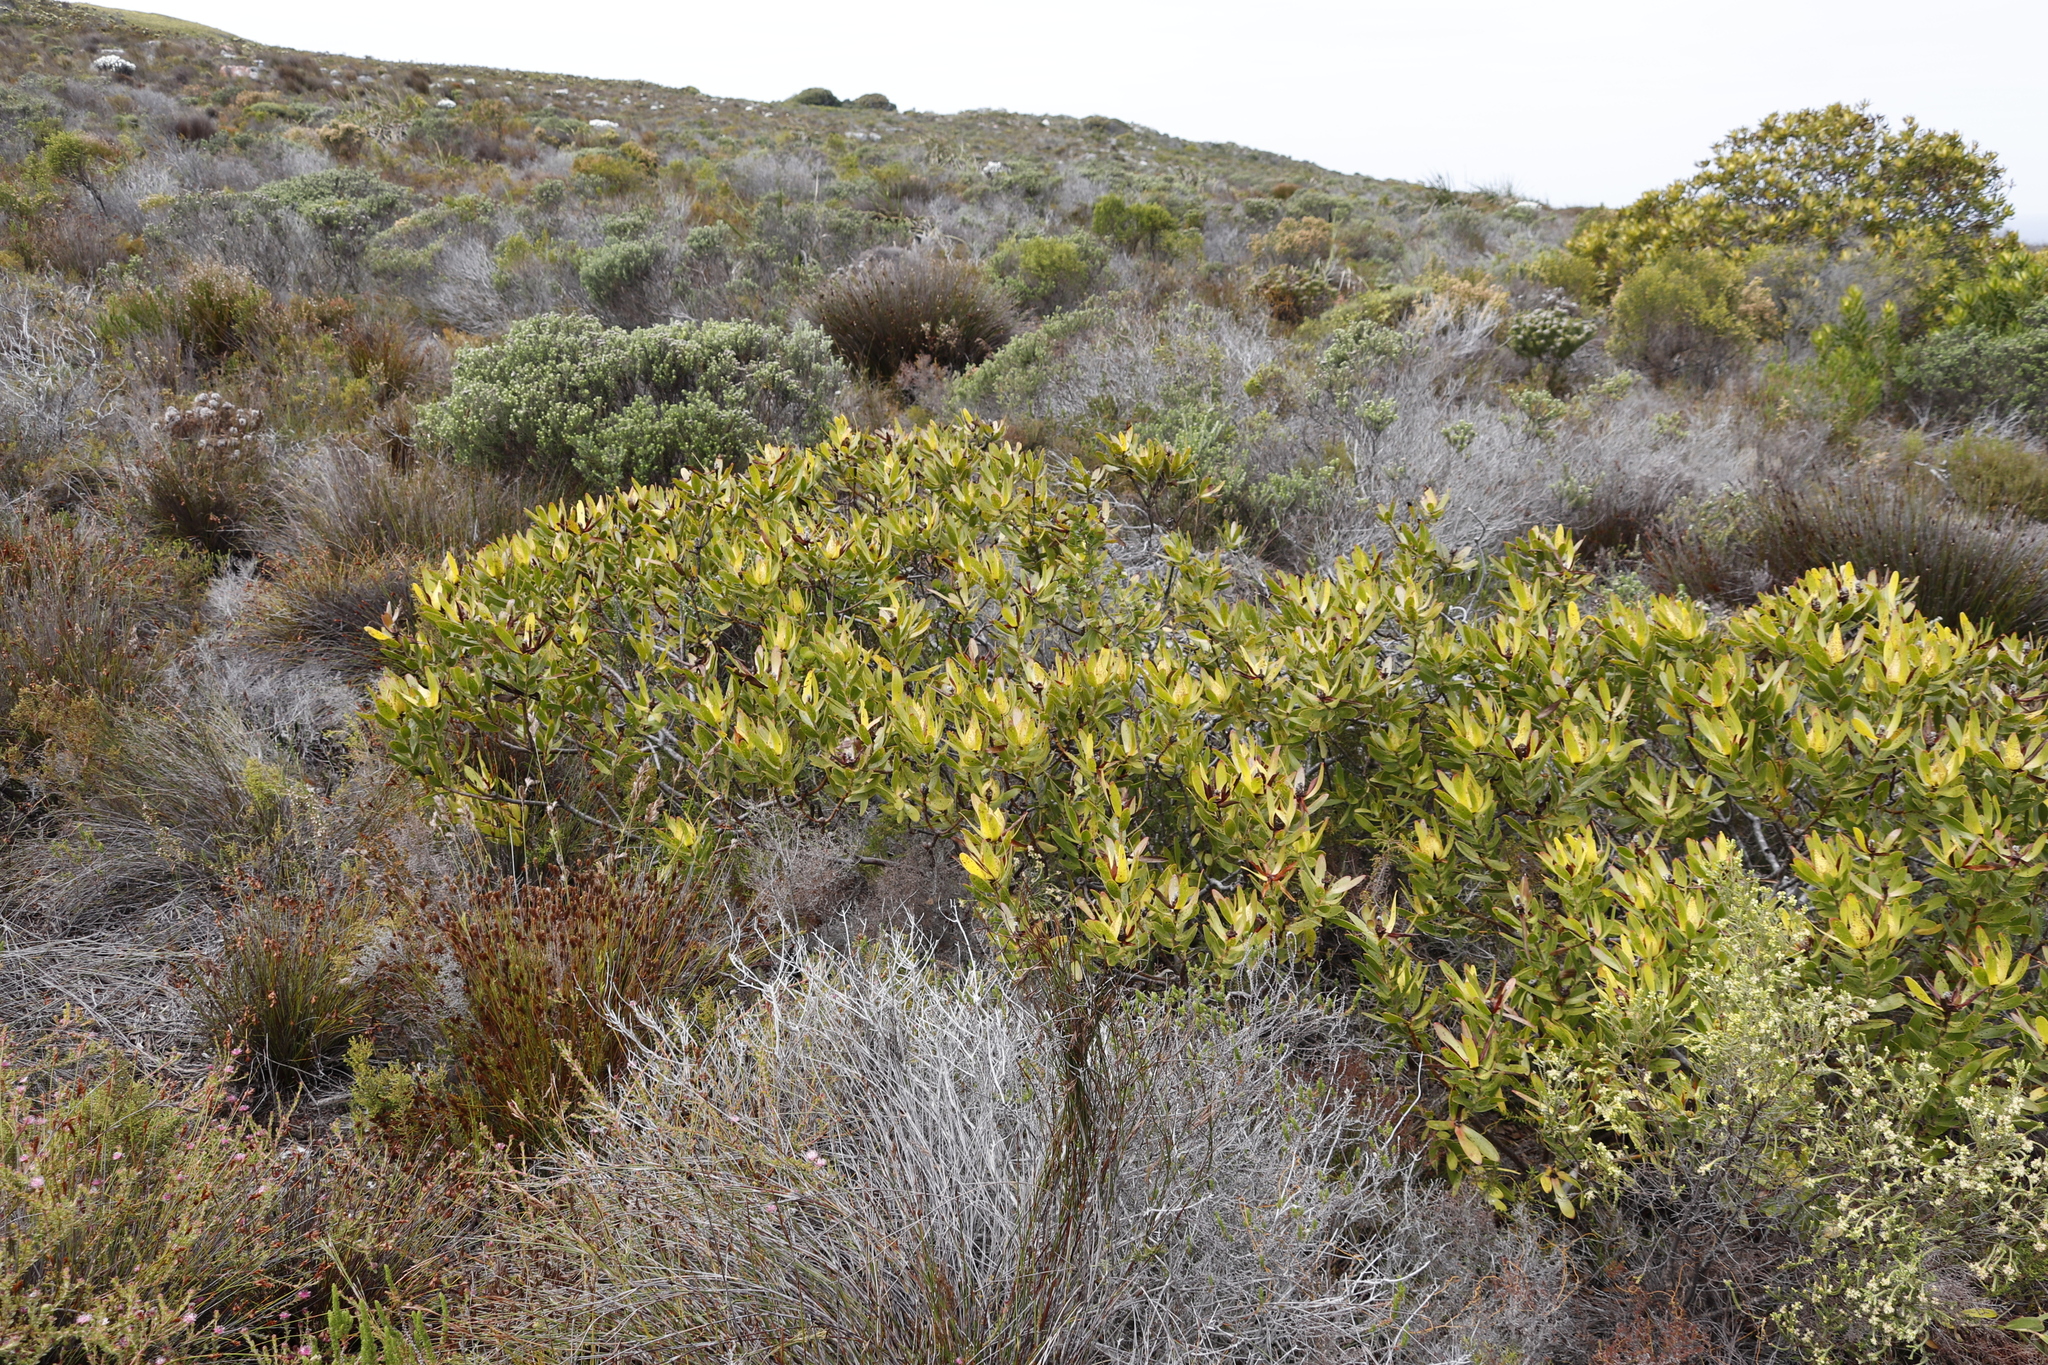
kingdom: Plantae
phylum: Tracheophyta
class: Magnoliopsida
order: Proteales
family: Proteaceae
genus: Leucadendron
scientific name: Leucadendron laureolum
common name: Golden sunshinebush
